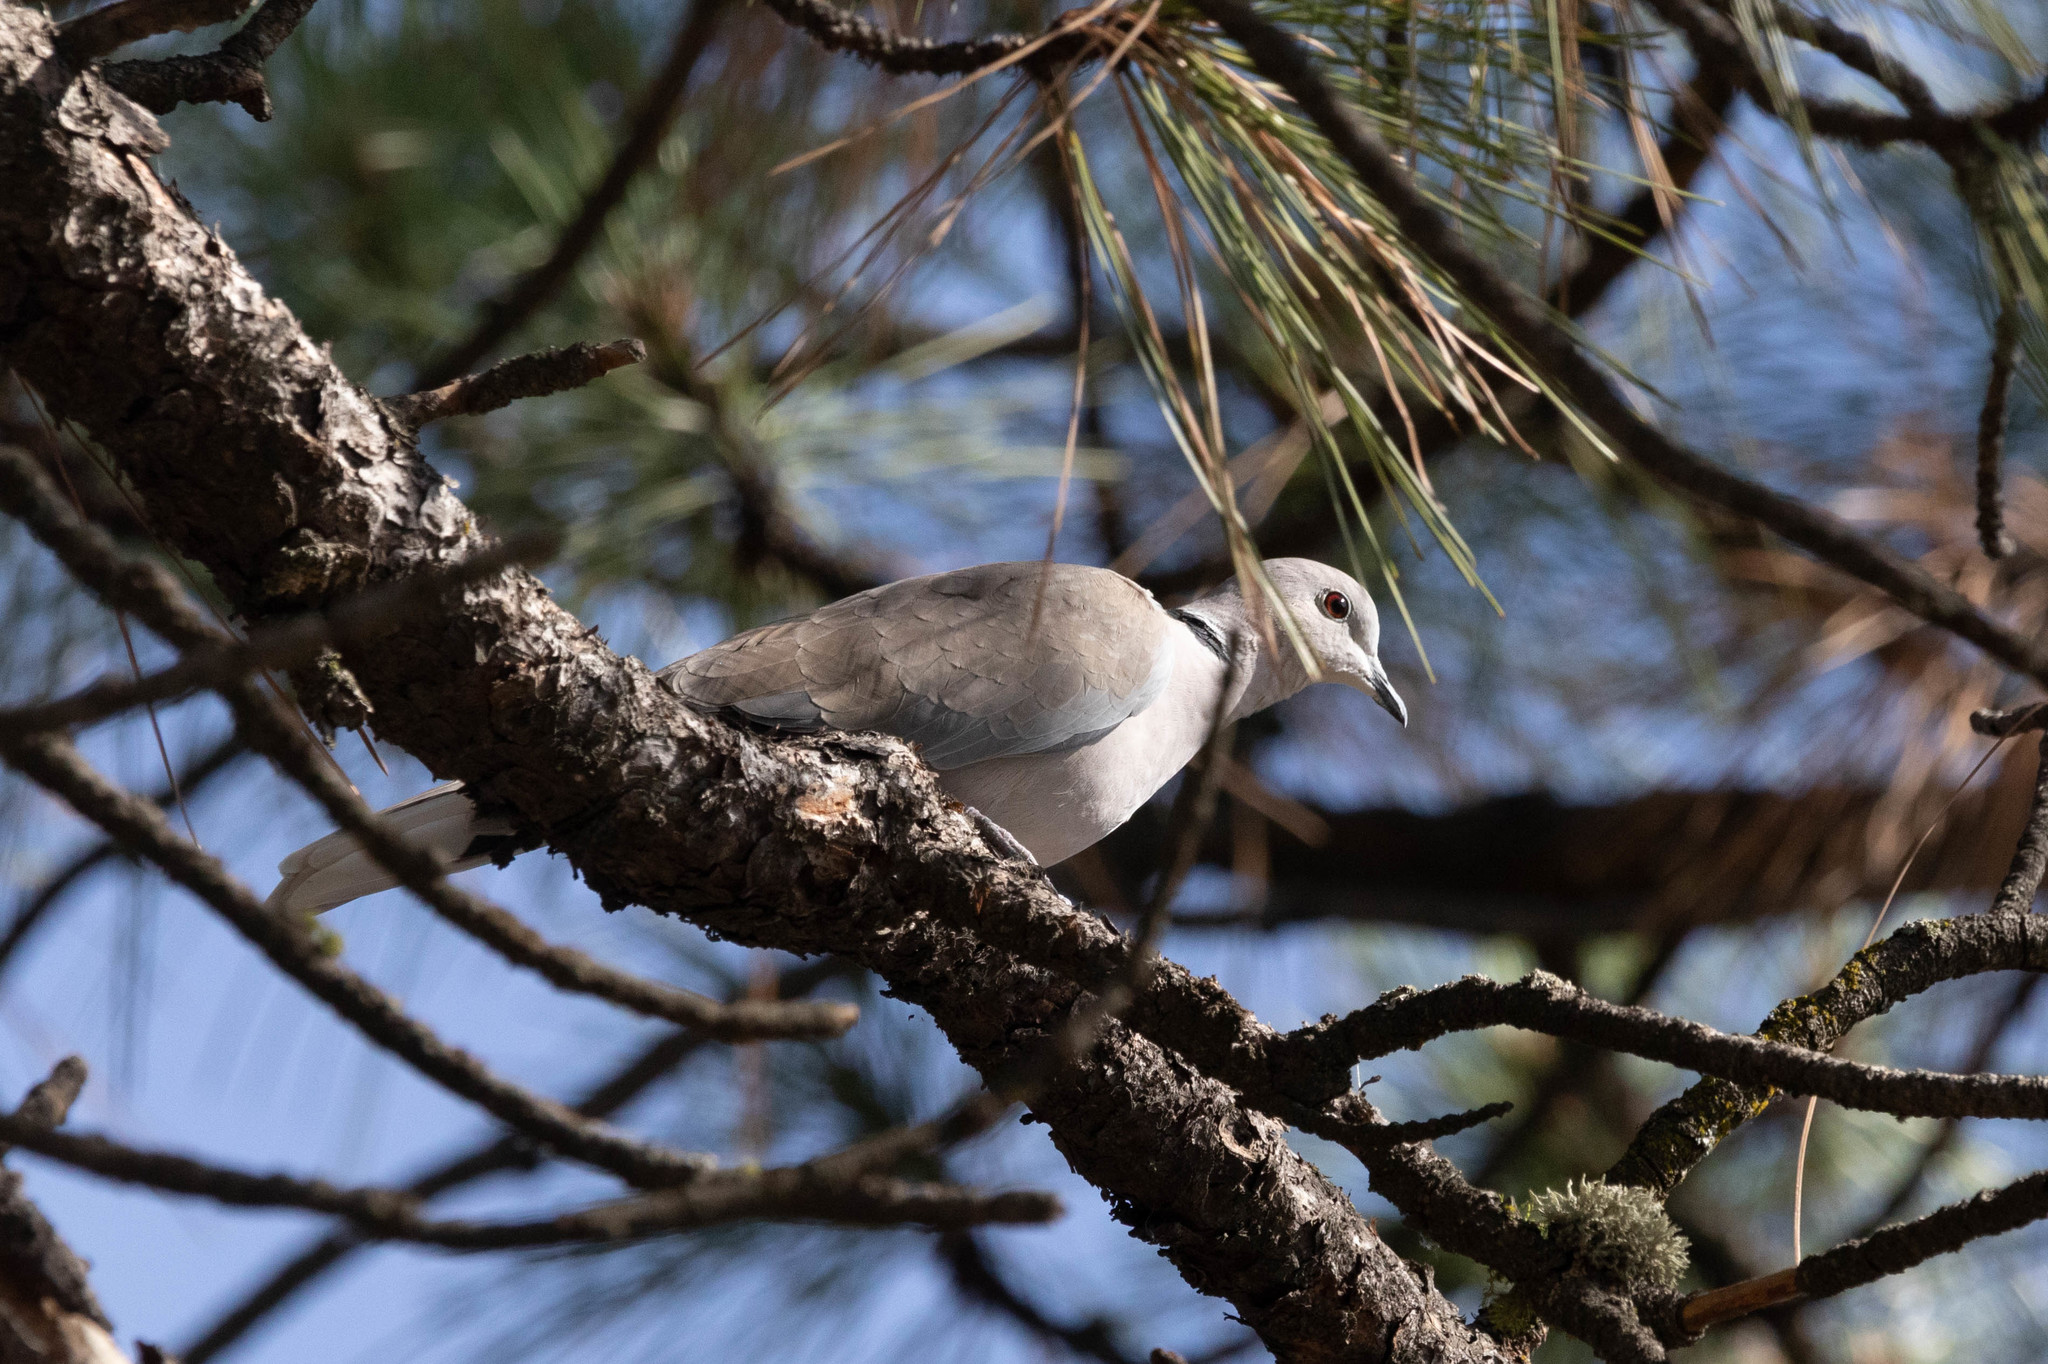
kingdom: Animalia
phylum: Chordata
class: Aves
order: Columbiformes
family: Columbidae
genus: Streptopelia
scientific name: Streptopelia decaocto
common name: Eurasian collared dove
